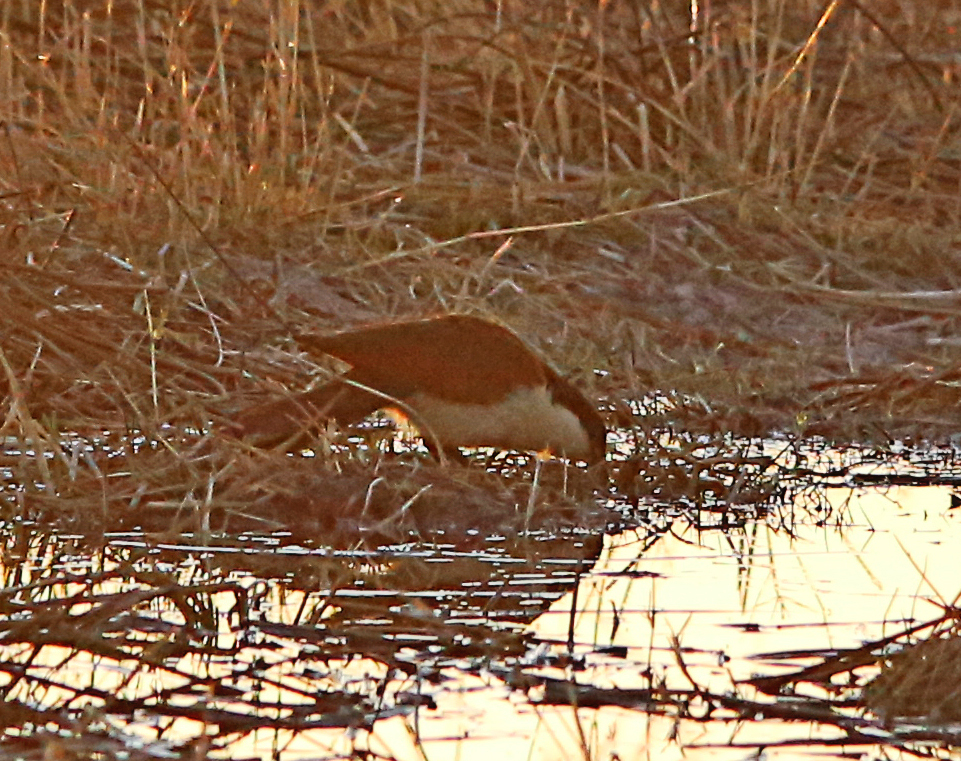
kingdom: Animalia
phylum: Chordata
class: Aves
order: Cuculiformes
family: Cuculidae
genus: Centropus
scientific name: Centropus senegalensis
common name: Senegal coucal
